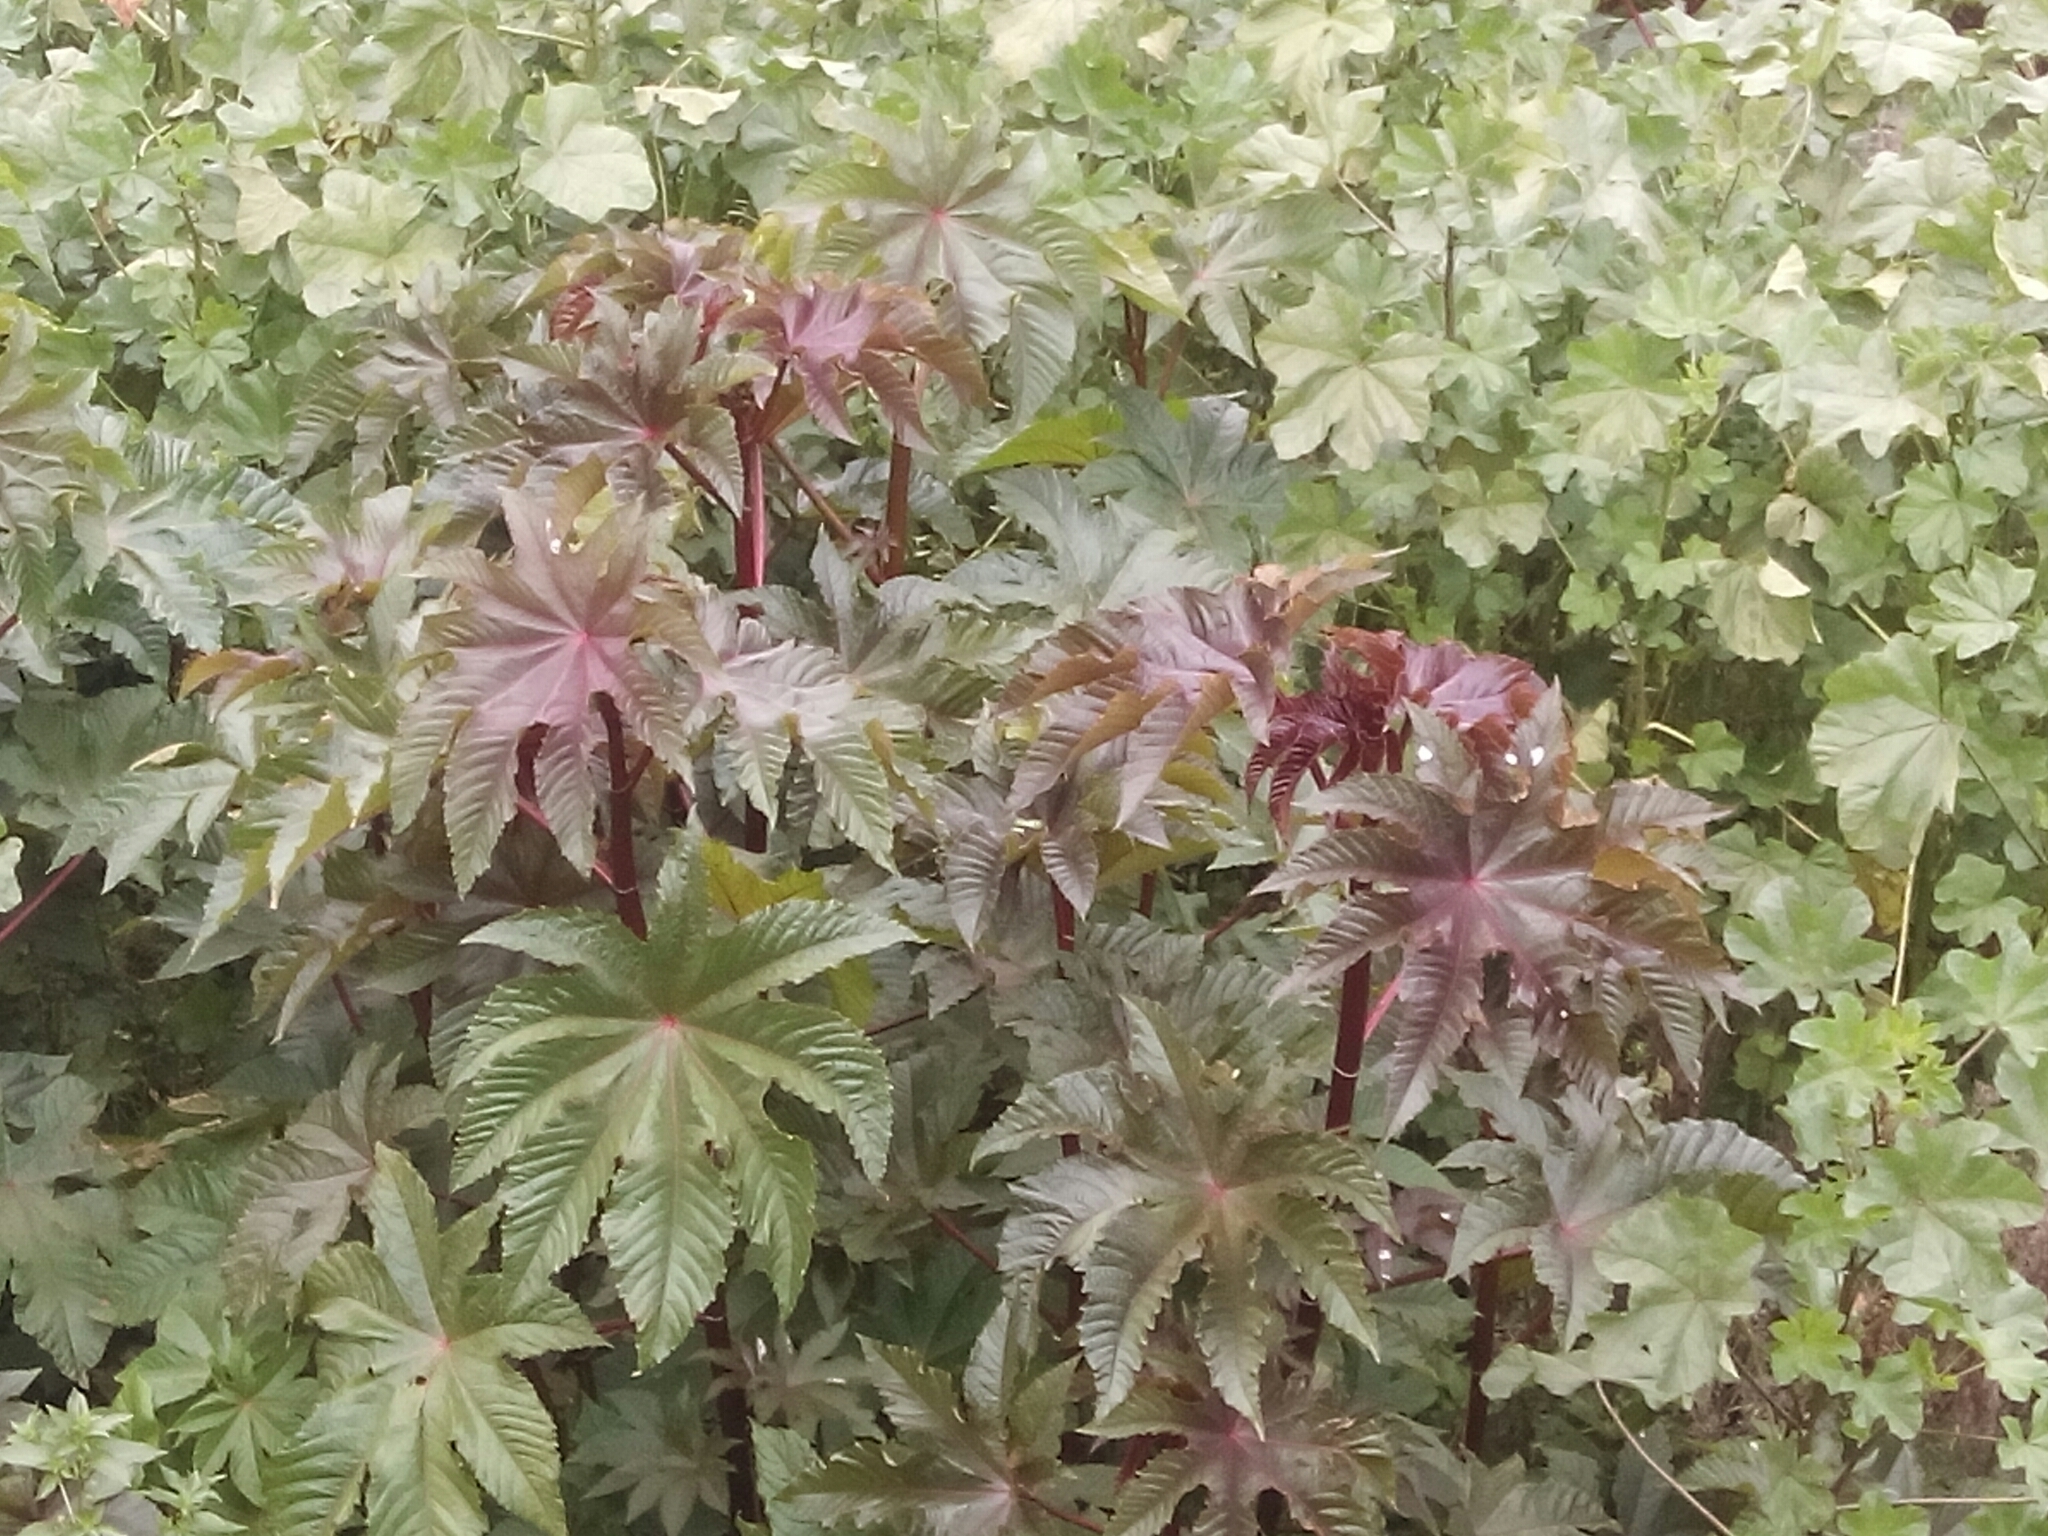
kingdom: Plantae
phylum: Tracheophyta
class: Magnoliopsida
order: Malpighiales
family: Euphorbiaceae
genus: Ricinus
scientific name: Ricinus communis
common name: Castor-oil-plant
